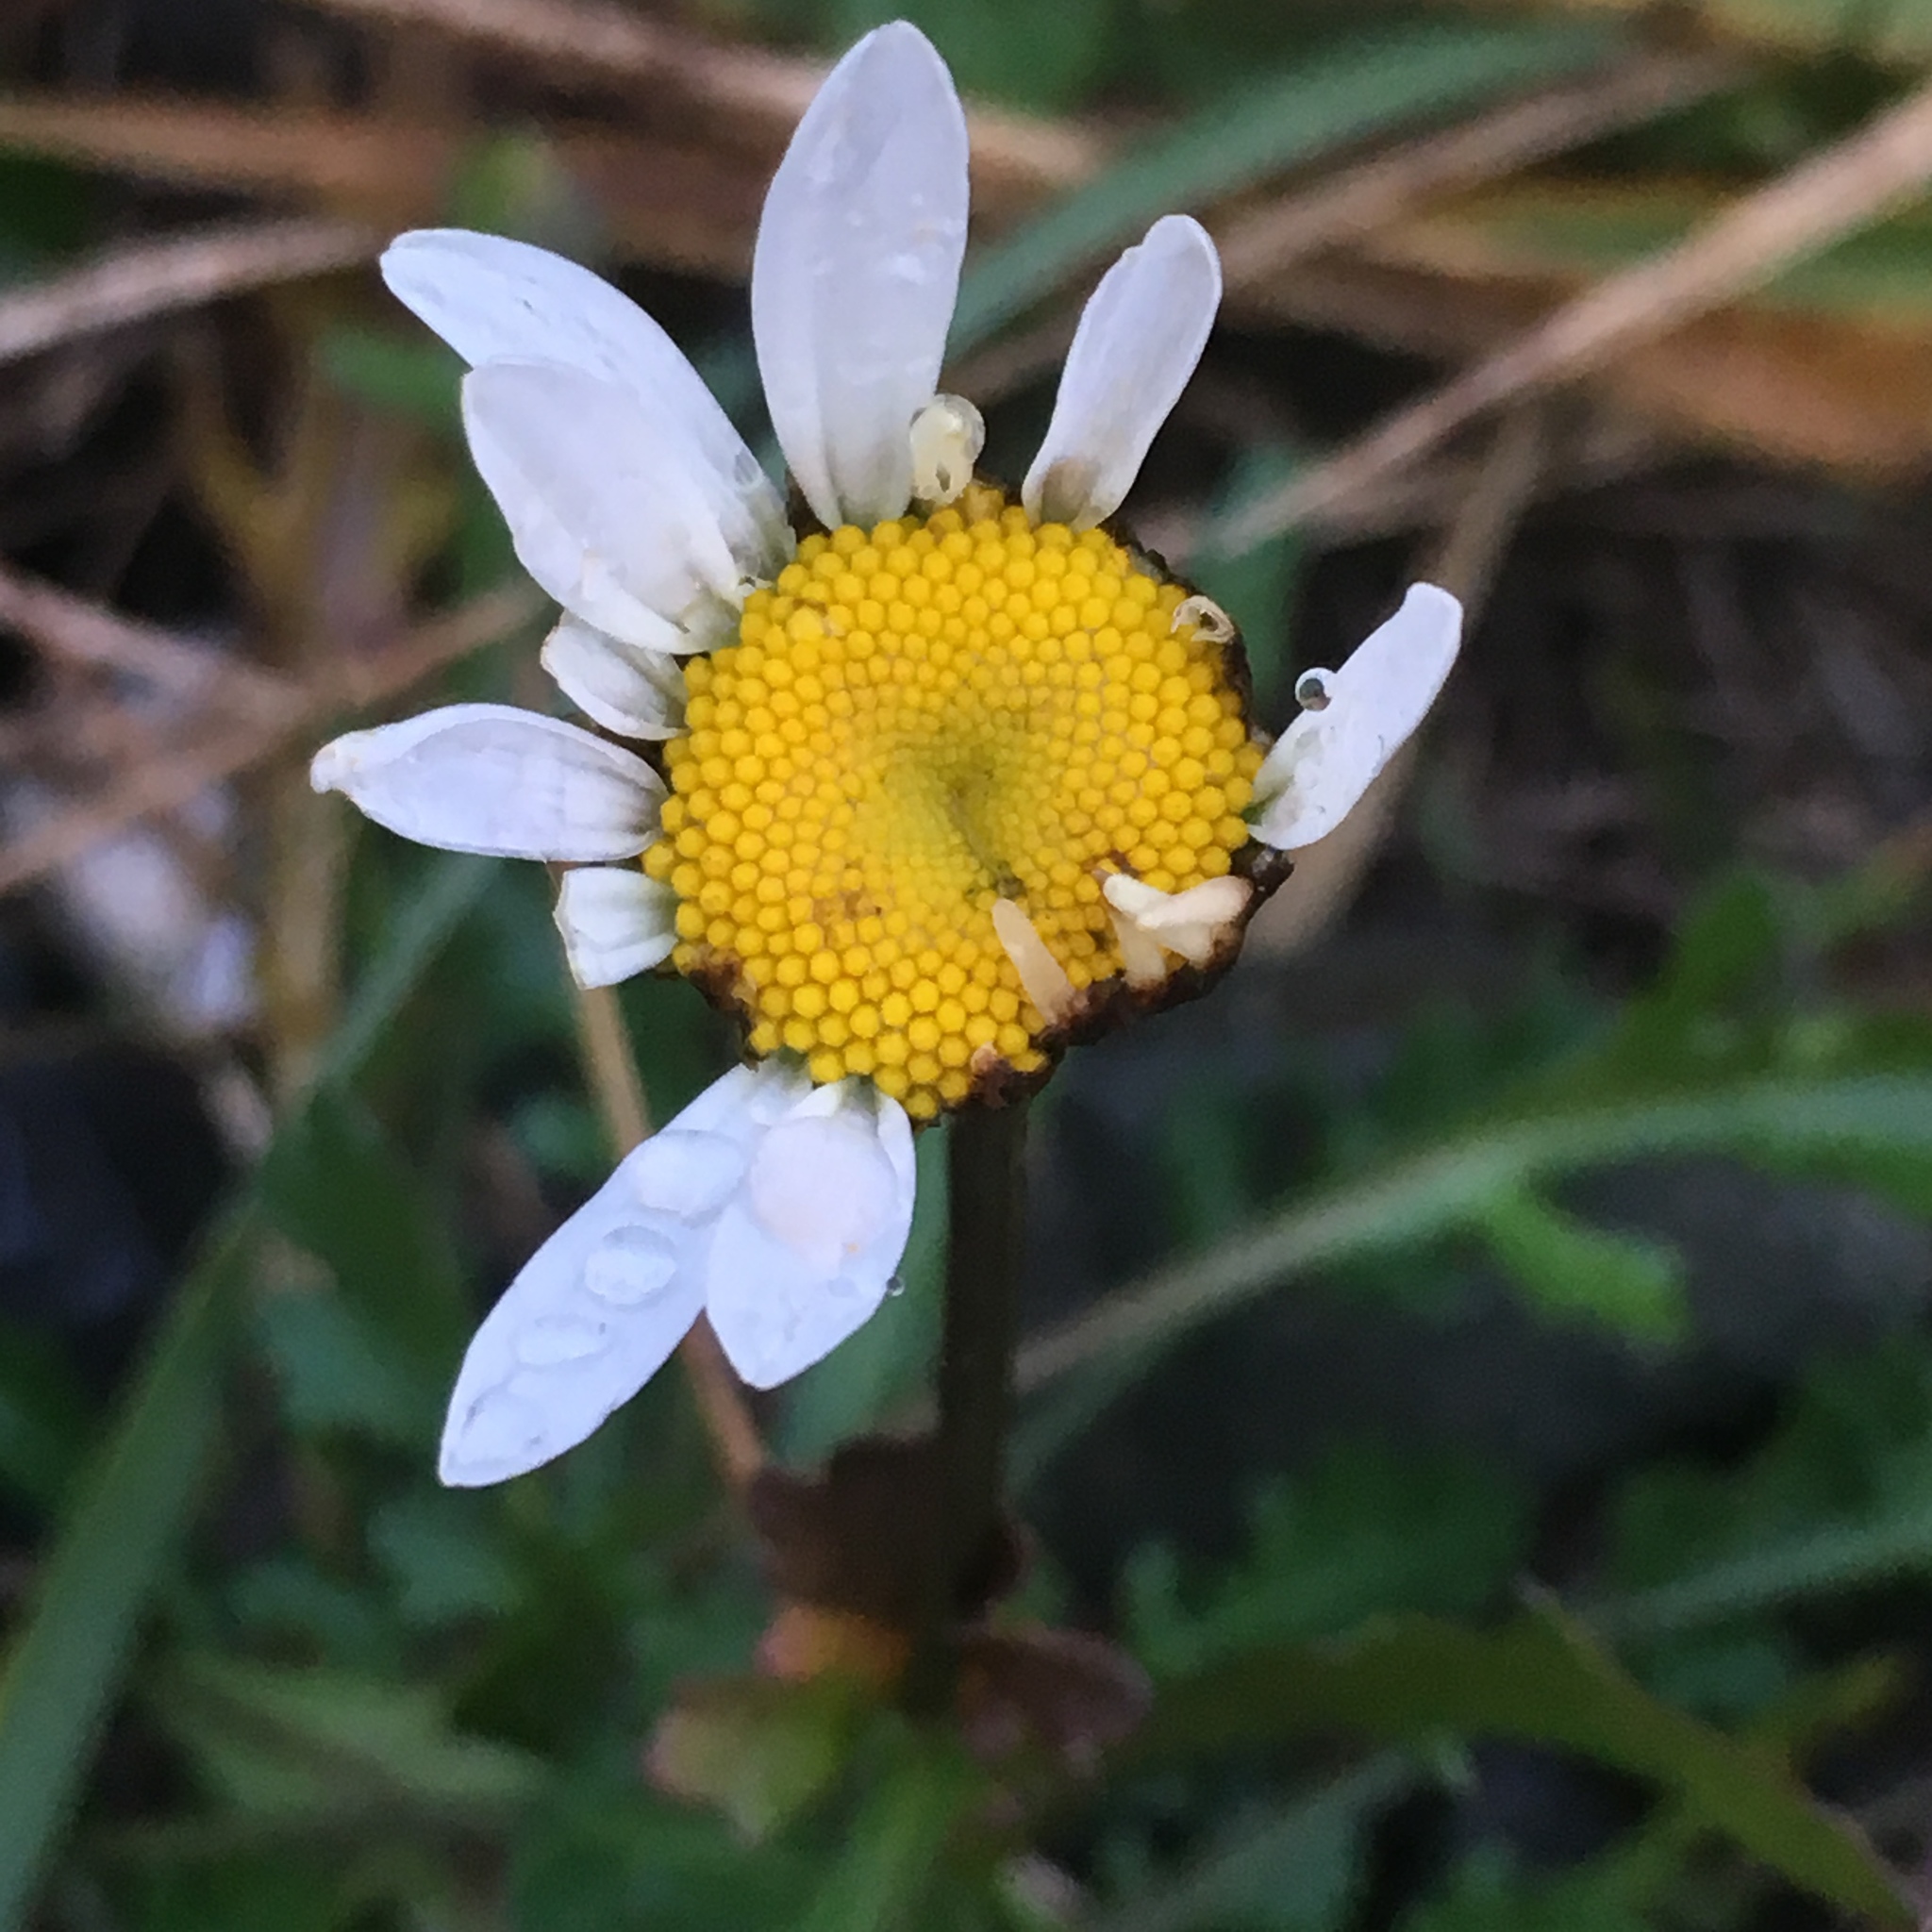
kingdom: Plantae
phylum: Tracheophyta
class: Magnoliopsida
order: Asterales
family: Asteraceae
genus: Leucanthemum
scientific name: Leucanthemum vulgare
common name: Oxeye daisy
